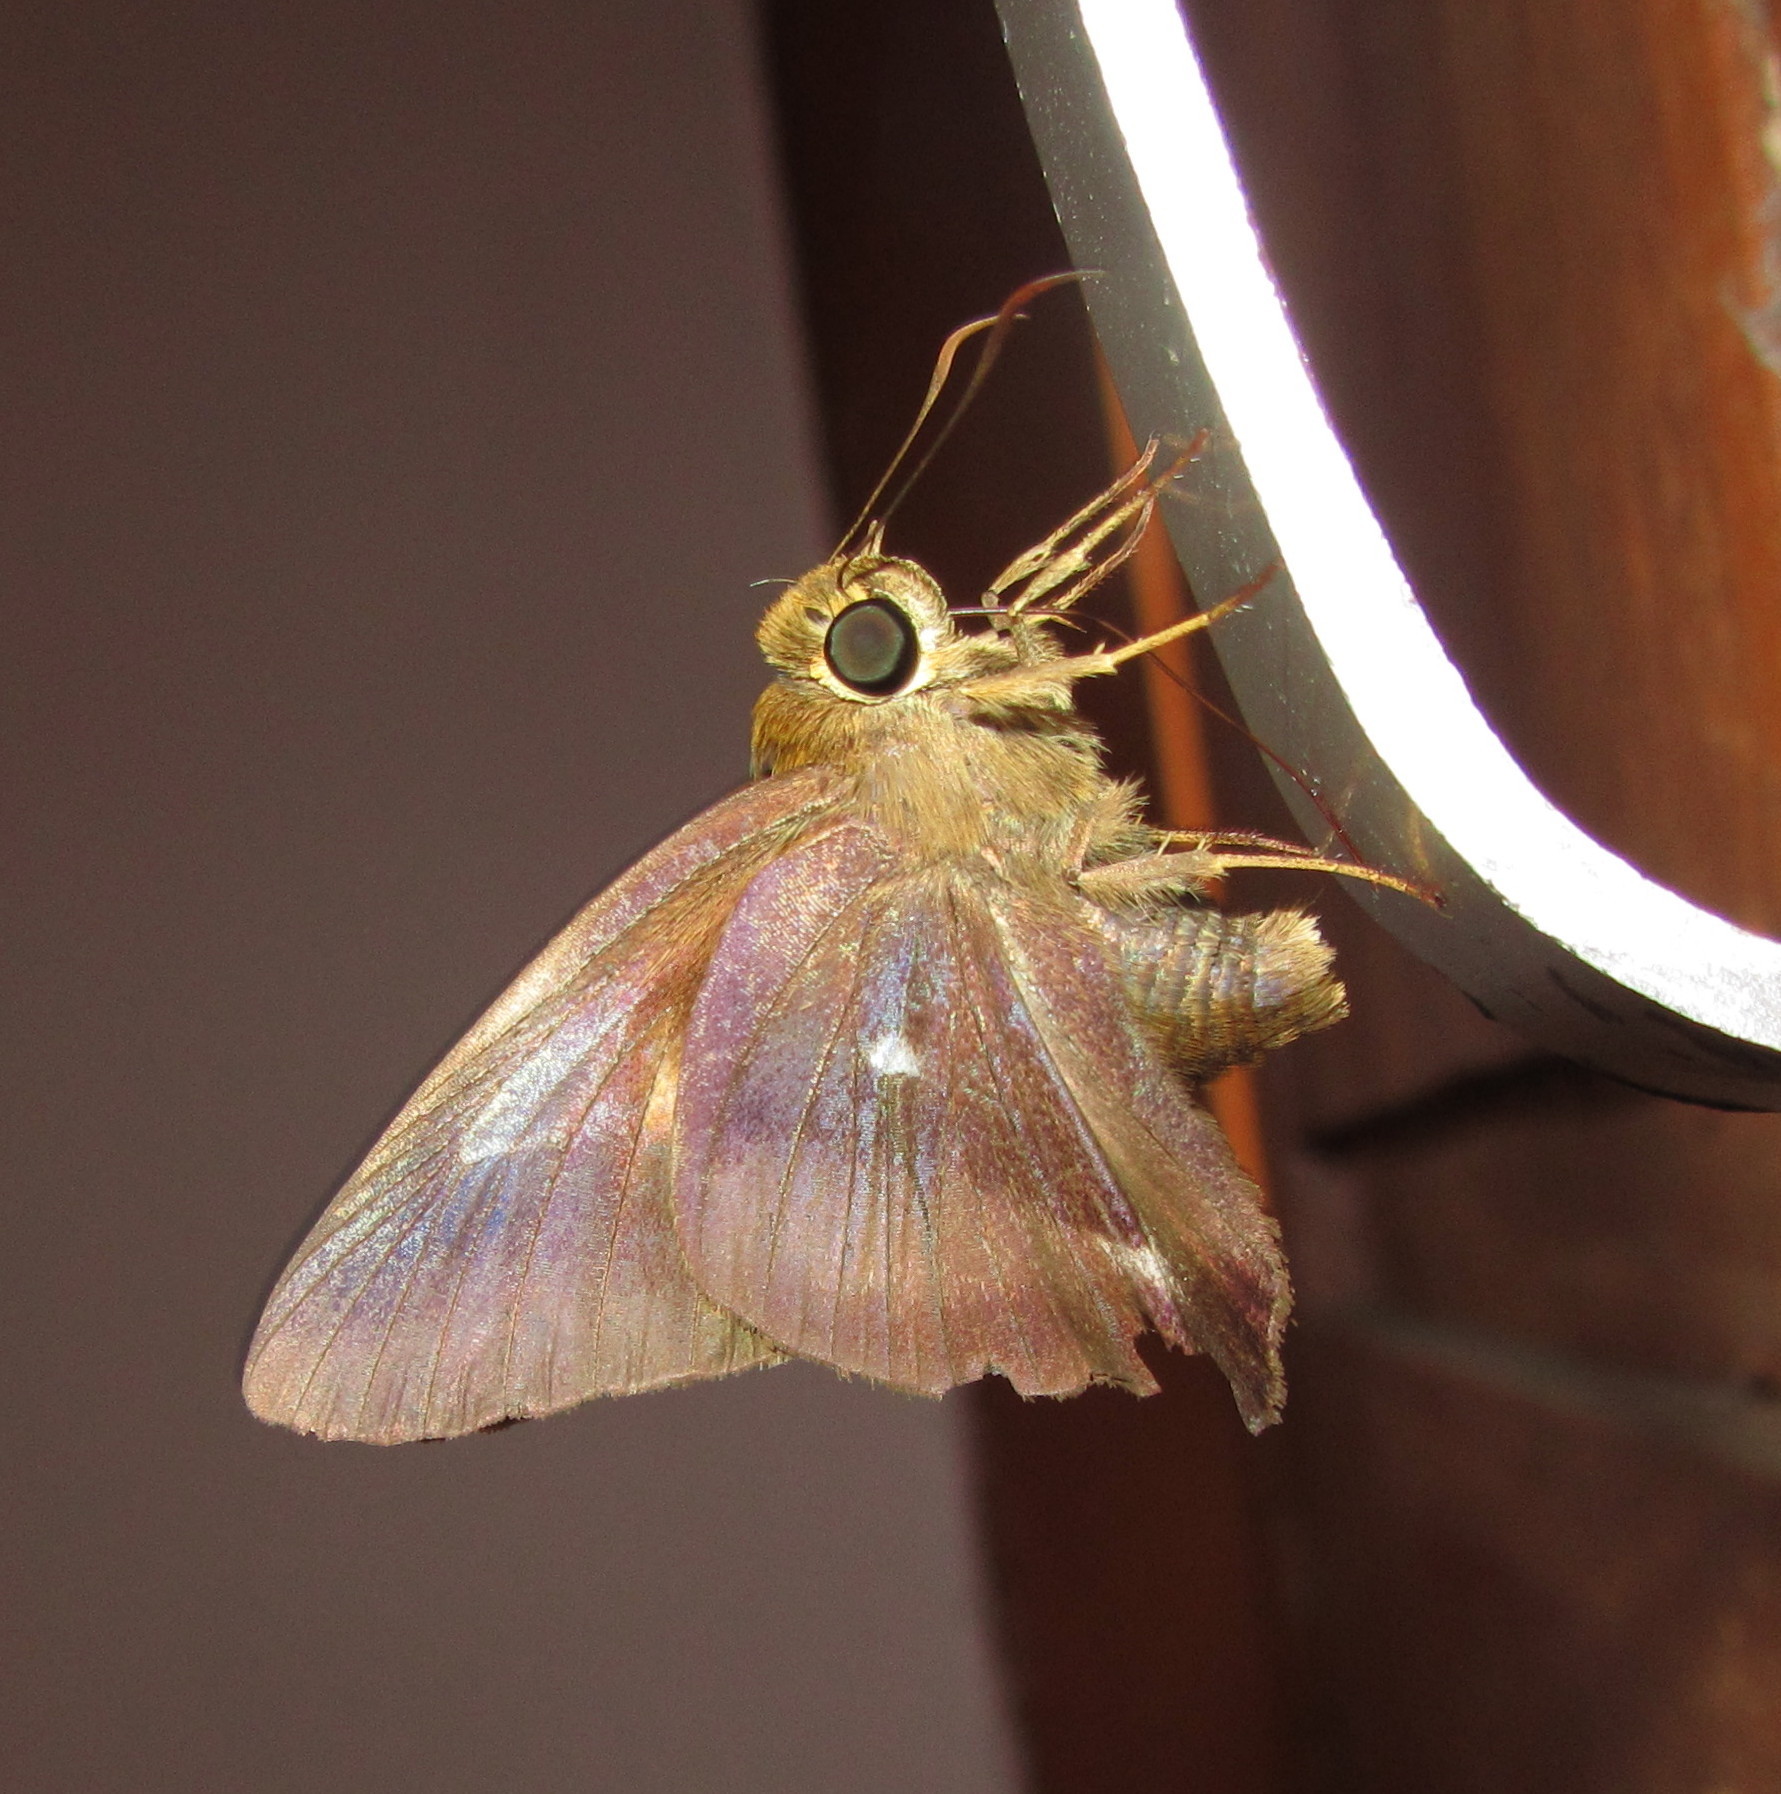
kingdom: Animalia
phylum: Arthropoda
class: Insecta
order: Lepidoptera
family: Hesperiidae
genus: Hasora
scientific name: Hasora badra
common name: Common awl
